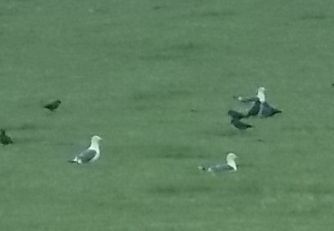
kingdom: Animalia
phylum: Chordata
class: Aves
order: Charadriiformes
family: Laridae
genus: Larus
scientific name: Larus fuscus
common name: Lesser black-backed gull
